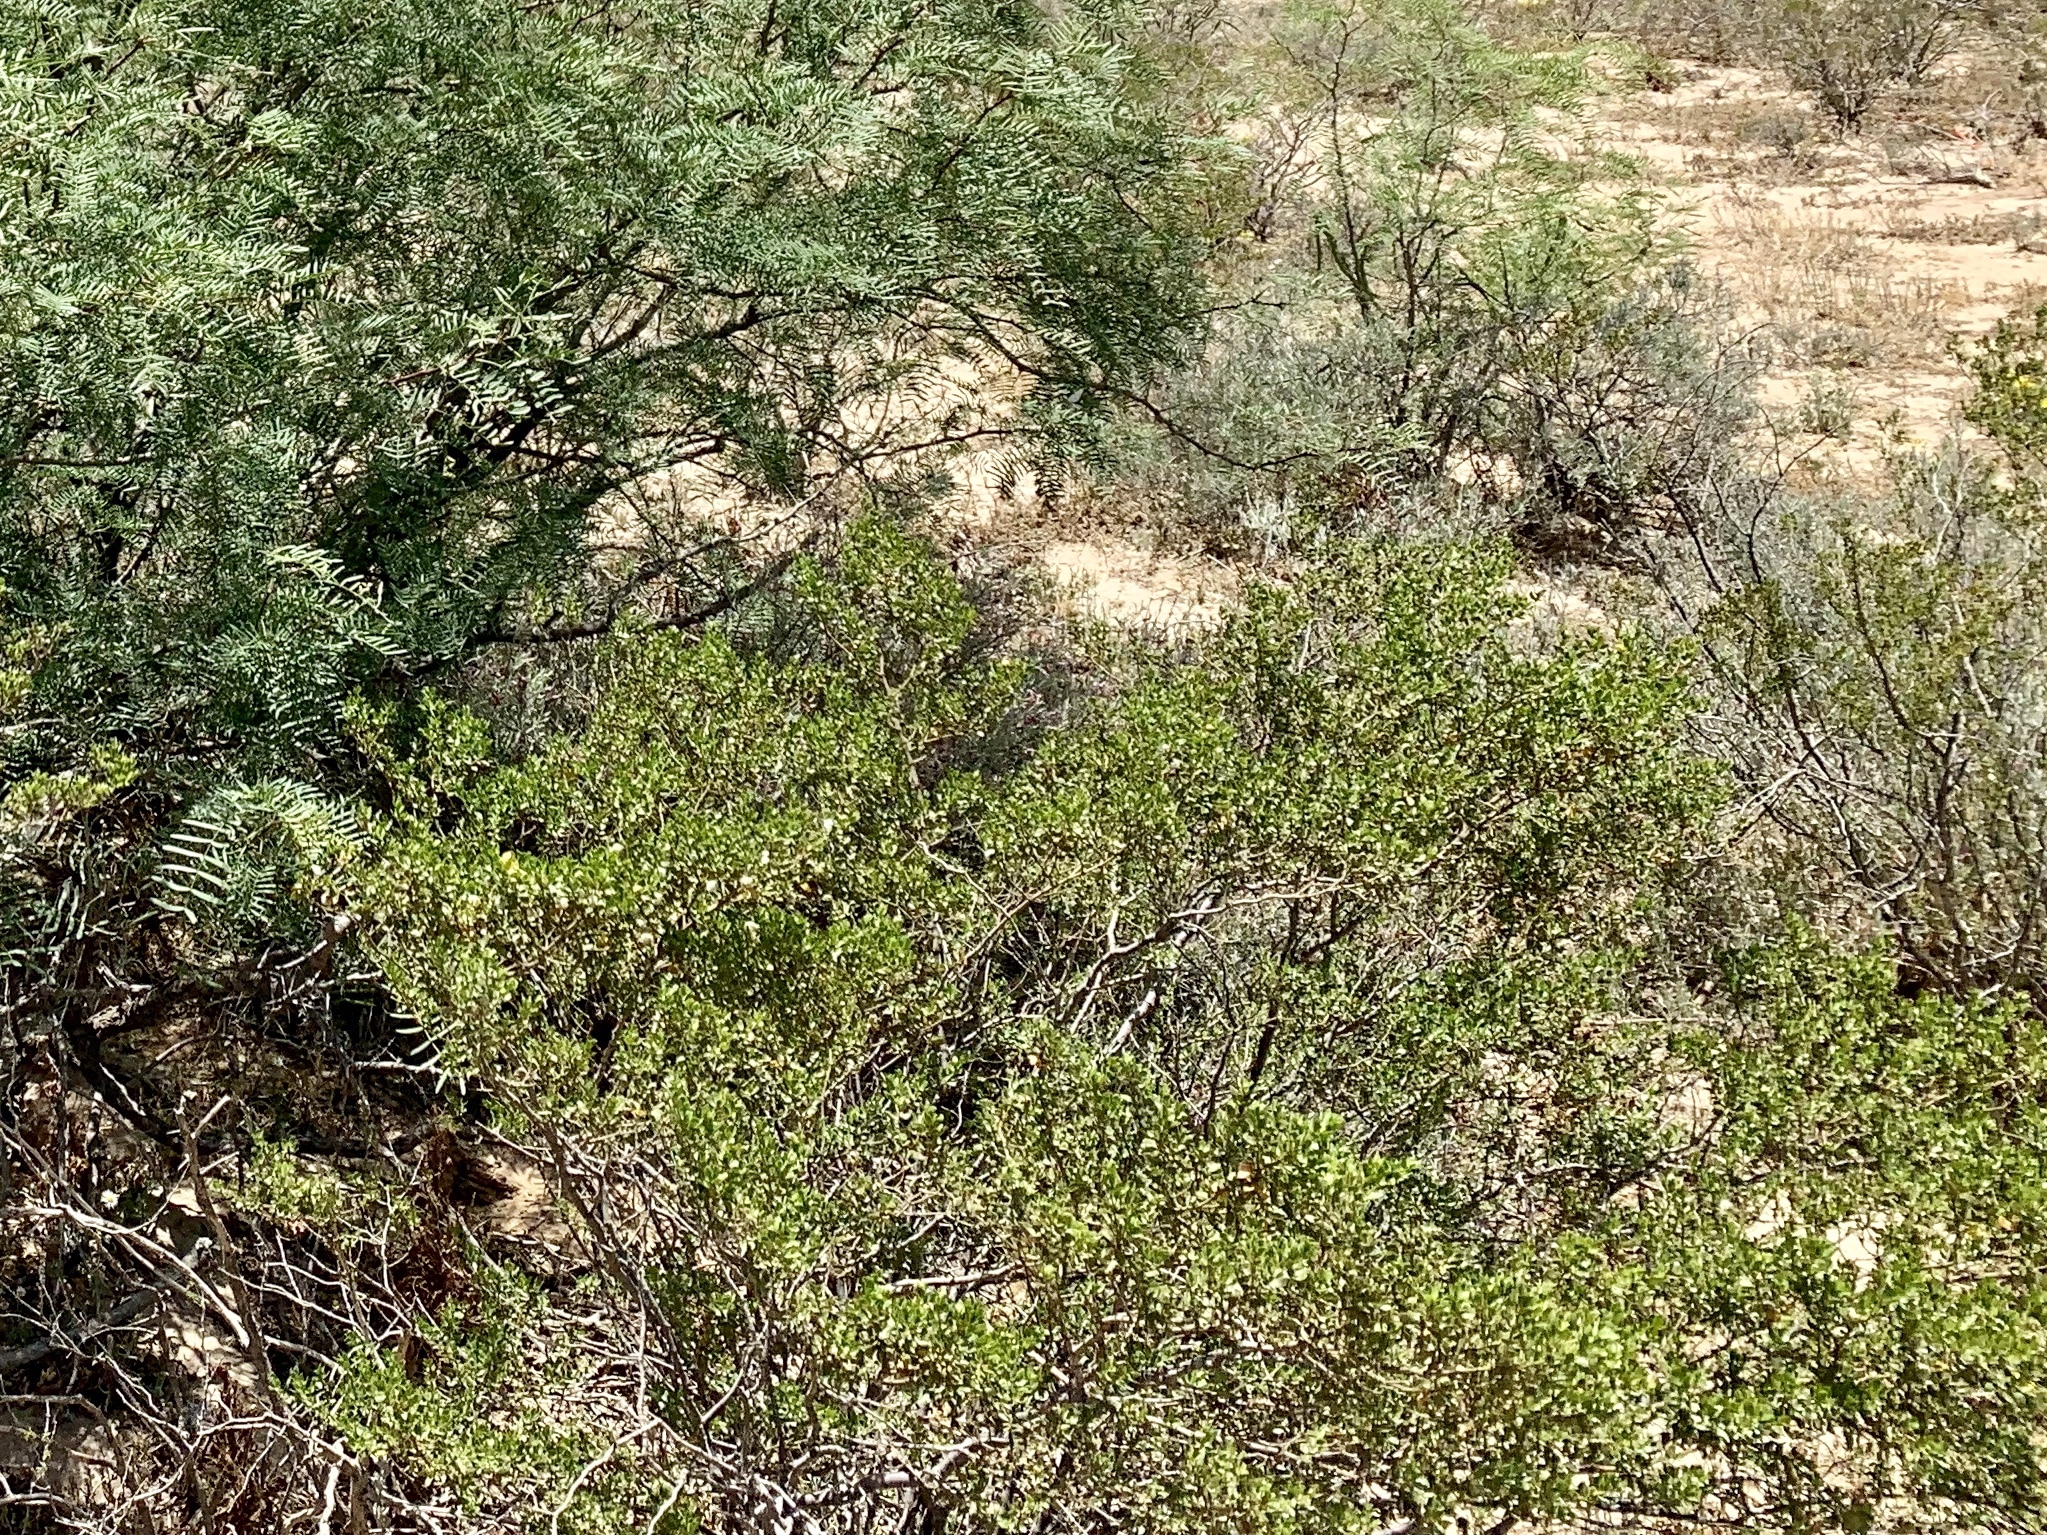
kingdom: Plantae
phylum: Tracheophyta
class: Magnoliopsida
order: Zygophyllales
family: Zygophyllaceae
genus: Larrea
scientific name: Larrea tridentata
